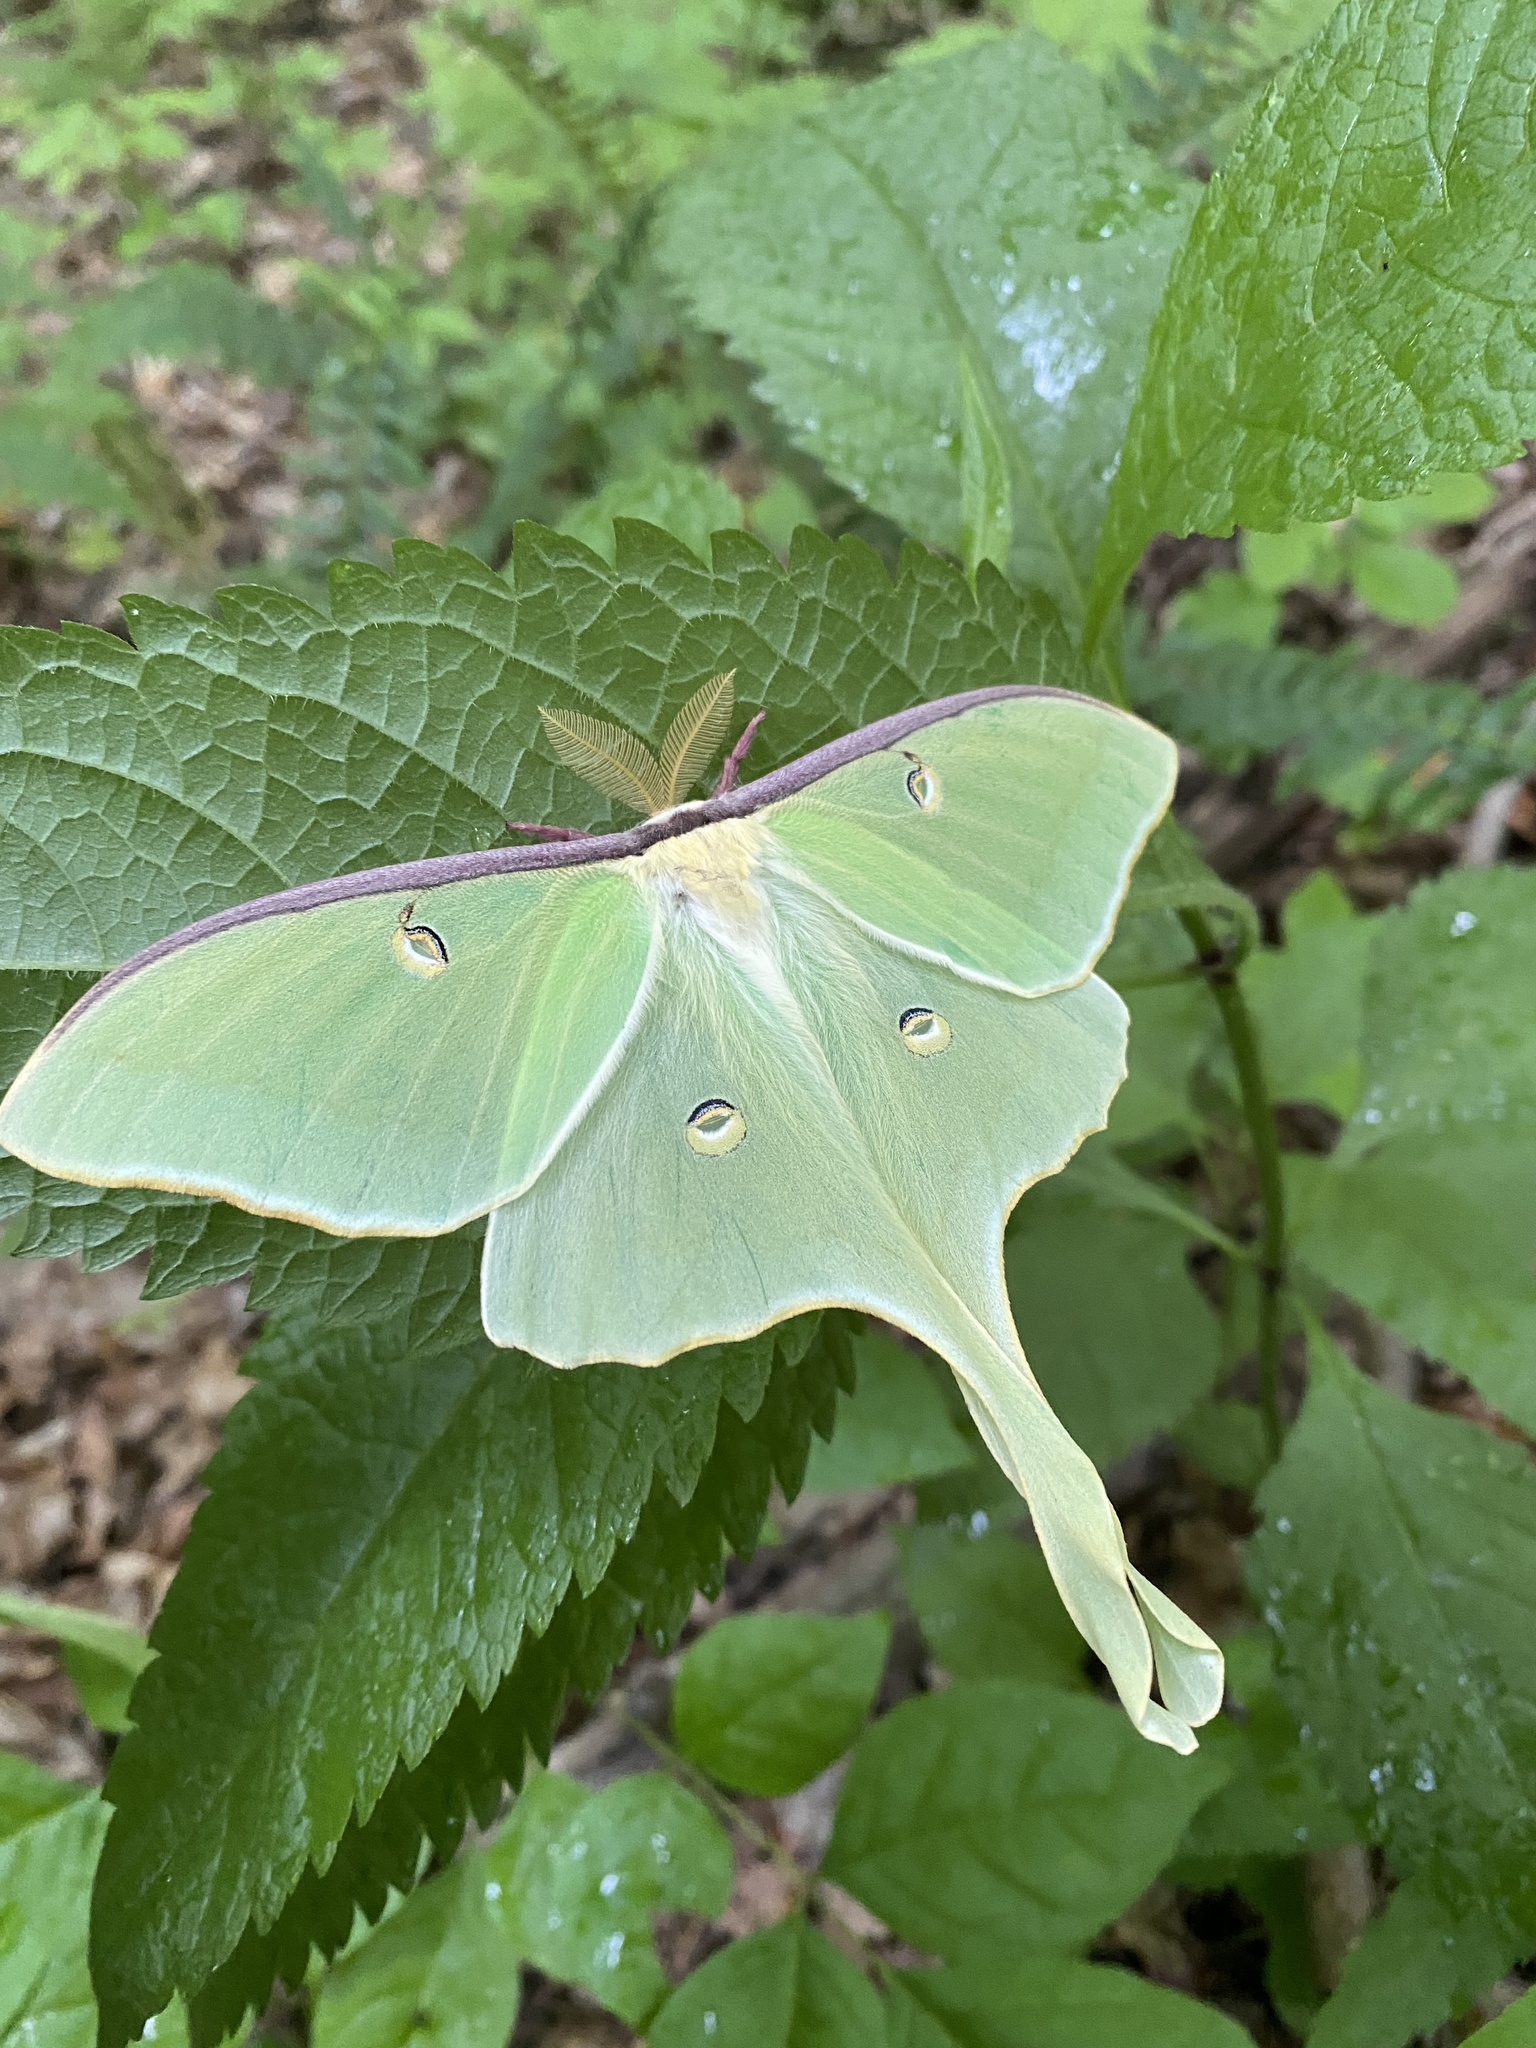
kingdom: Animalia
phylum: Arthropoda
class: Insecta
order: Lepidoptera
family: Saturniidae
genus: Actias
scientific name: Actias luna
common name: Luna moth
